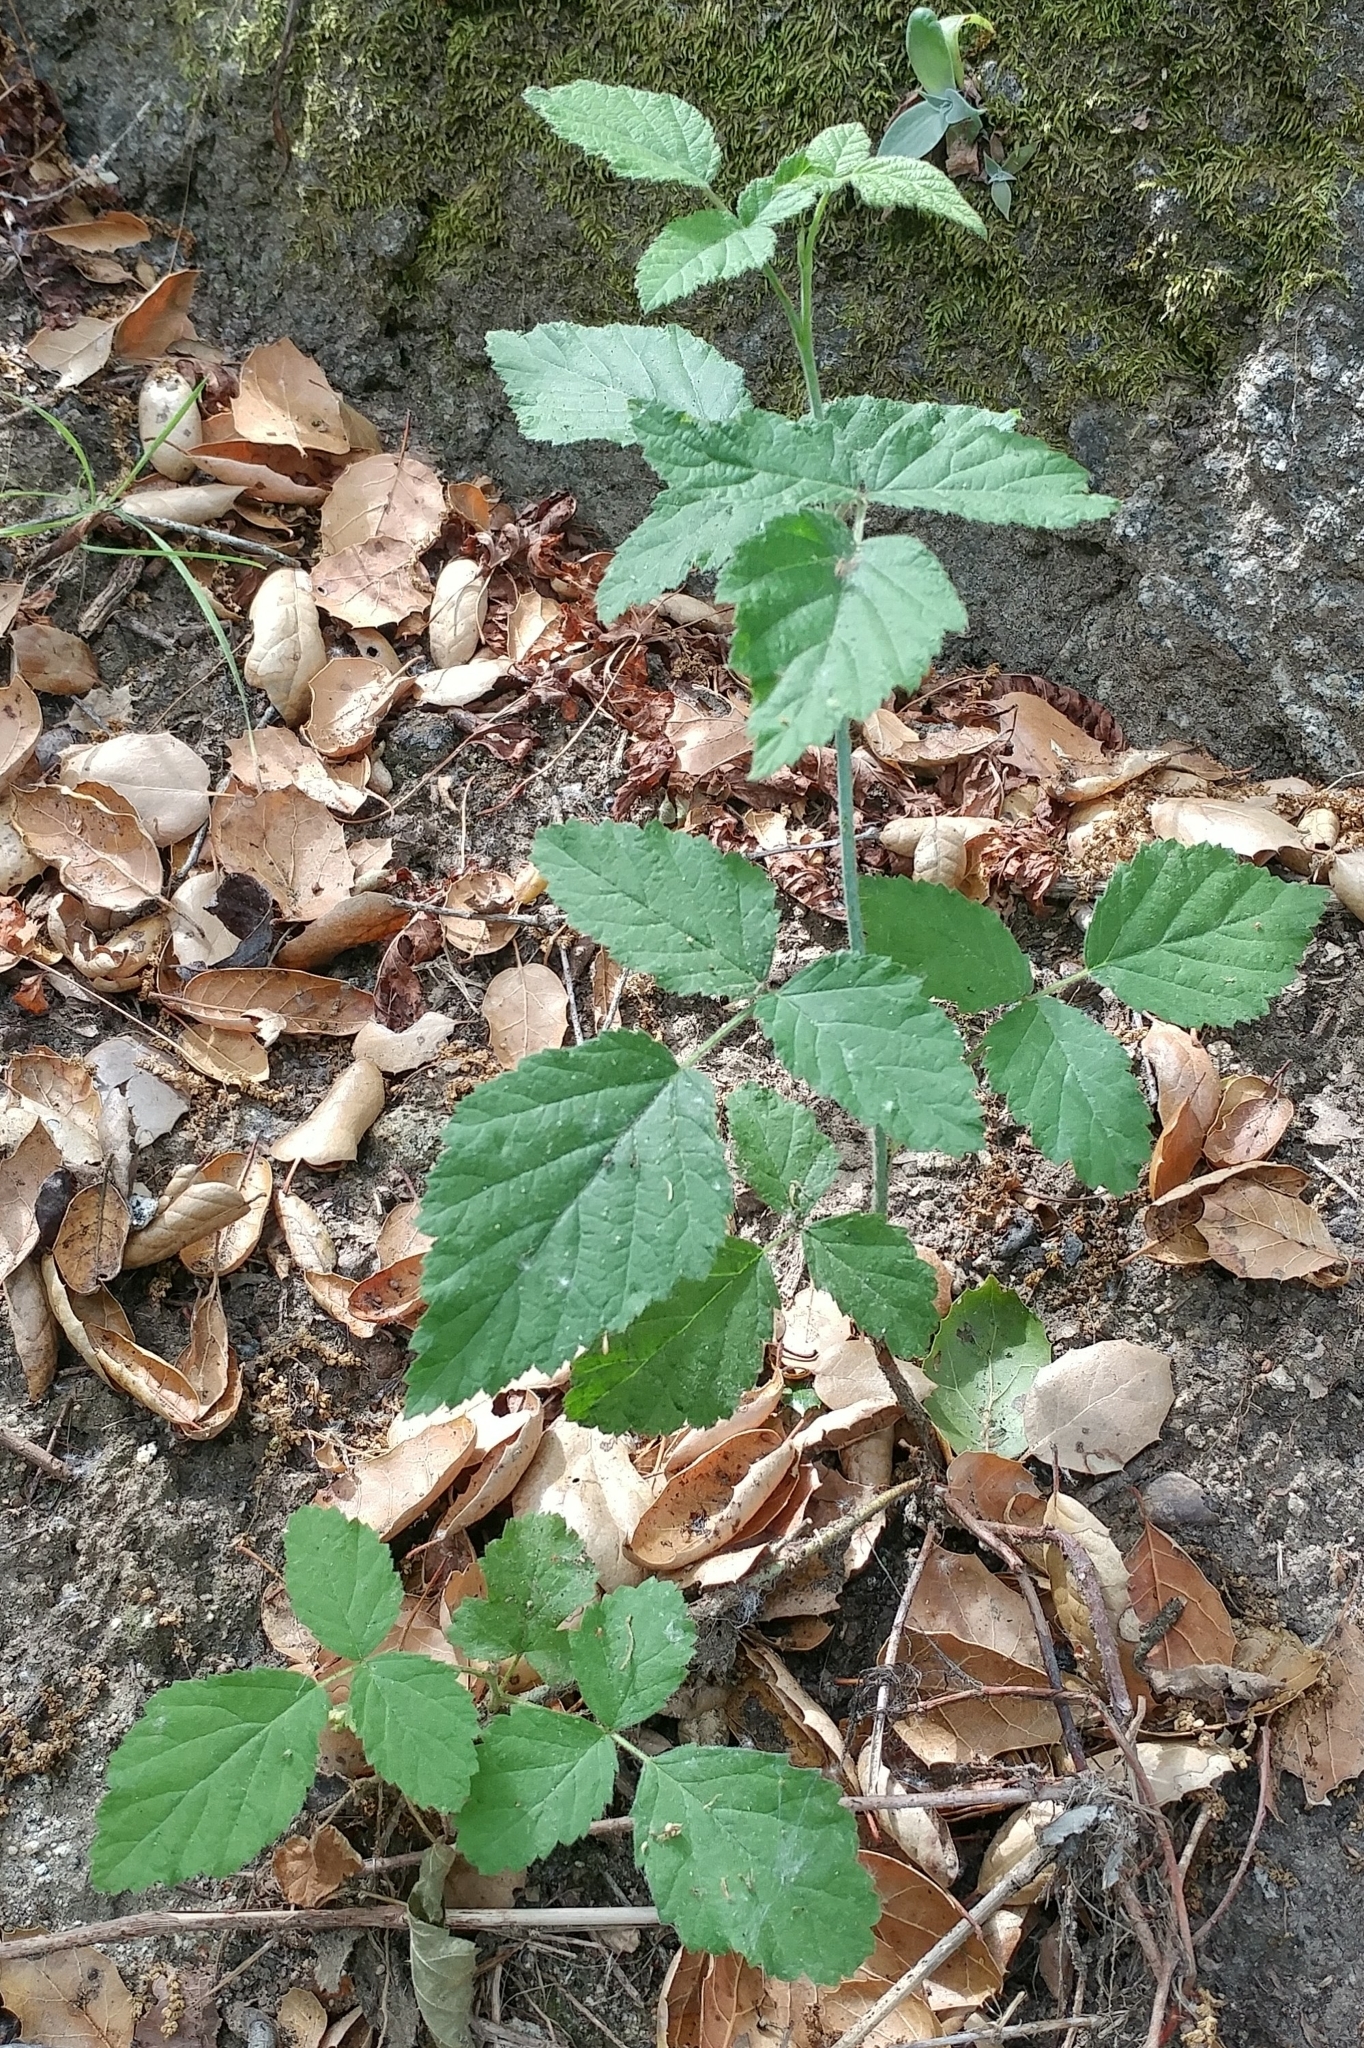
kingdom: Plantae
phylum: Tracheophyta
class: Magnoliopsida
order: Rosales
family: Rosaceae
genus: Rubus
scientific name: Rubus ursinus
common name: Pacific blackberry
